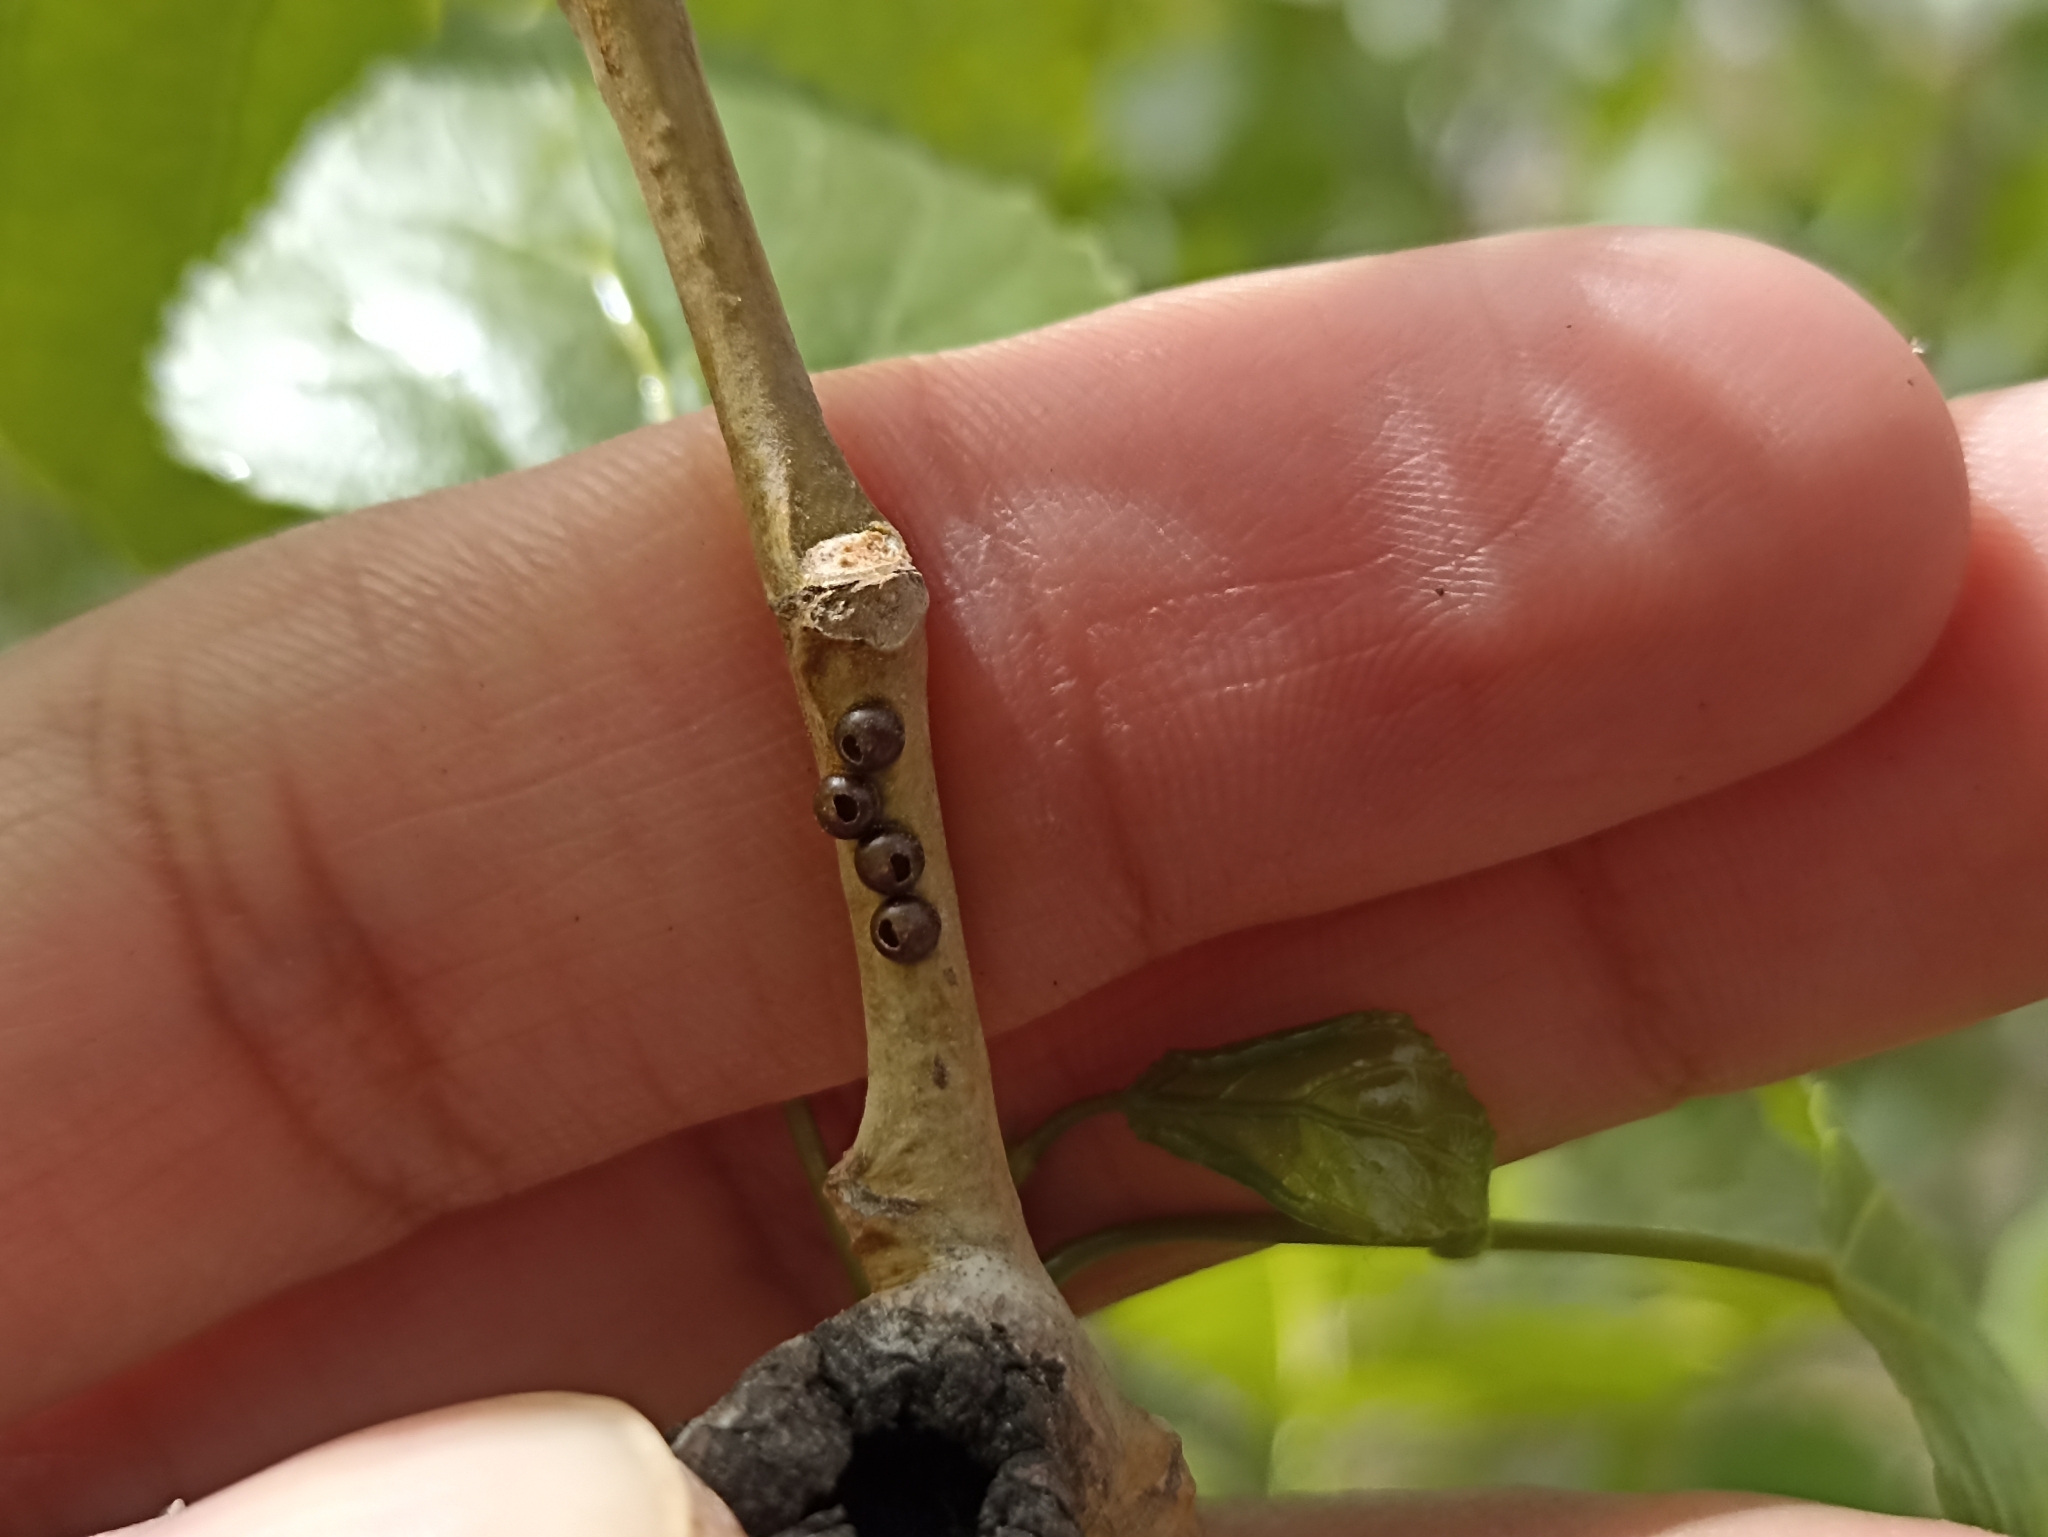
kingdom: Animalia
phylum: Arthropoda
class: Insecta
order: Lepidoptera
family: Notodontidae
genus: Cerura
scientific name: Cerura iberica
